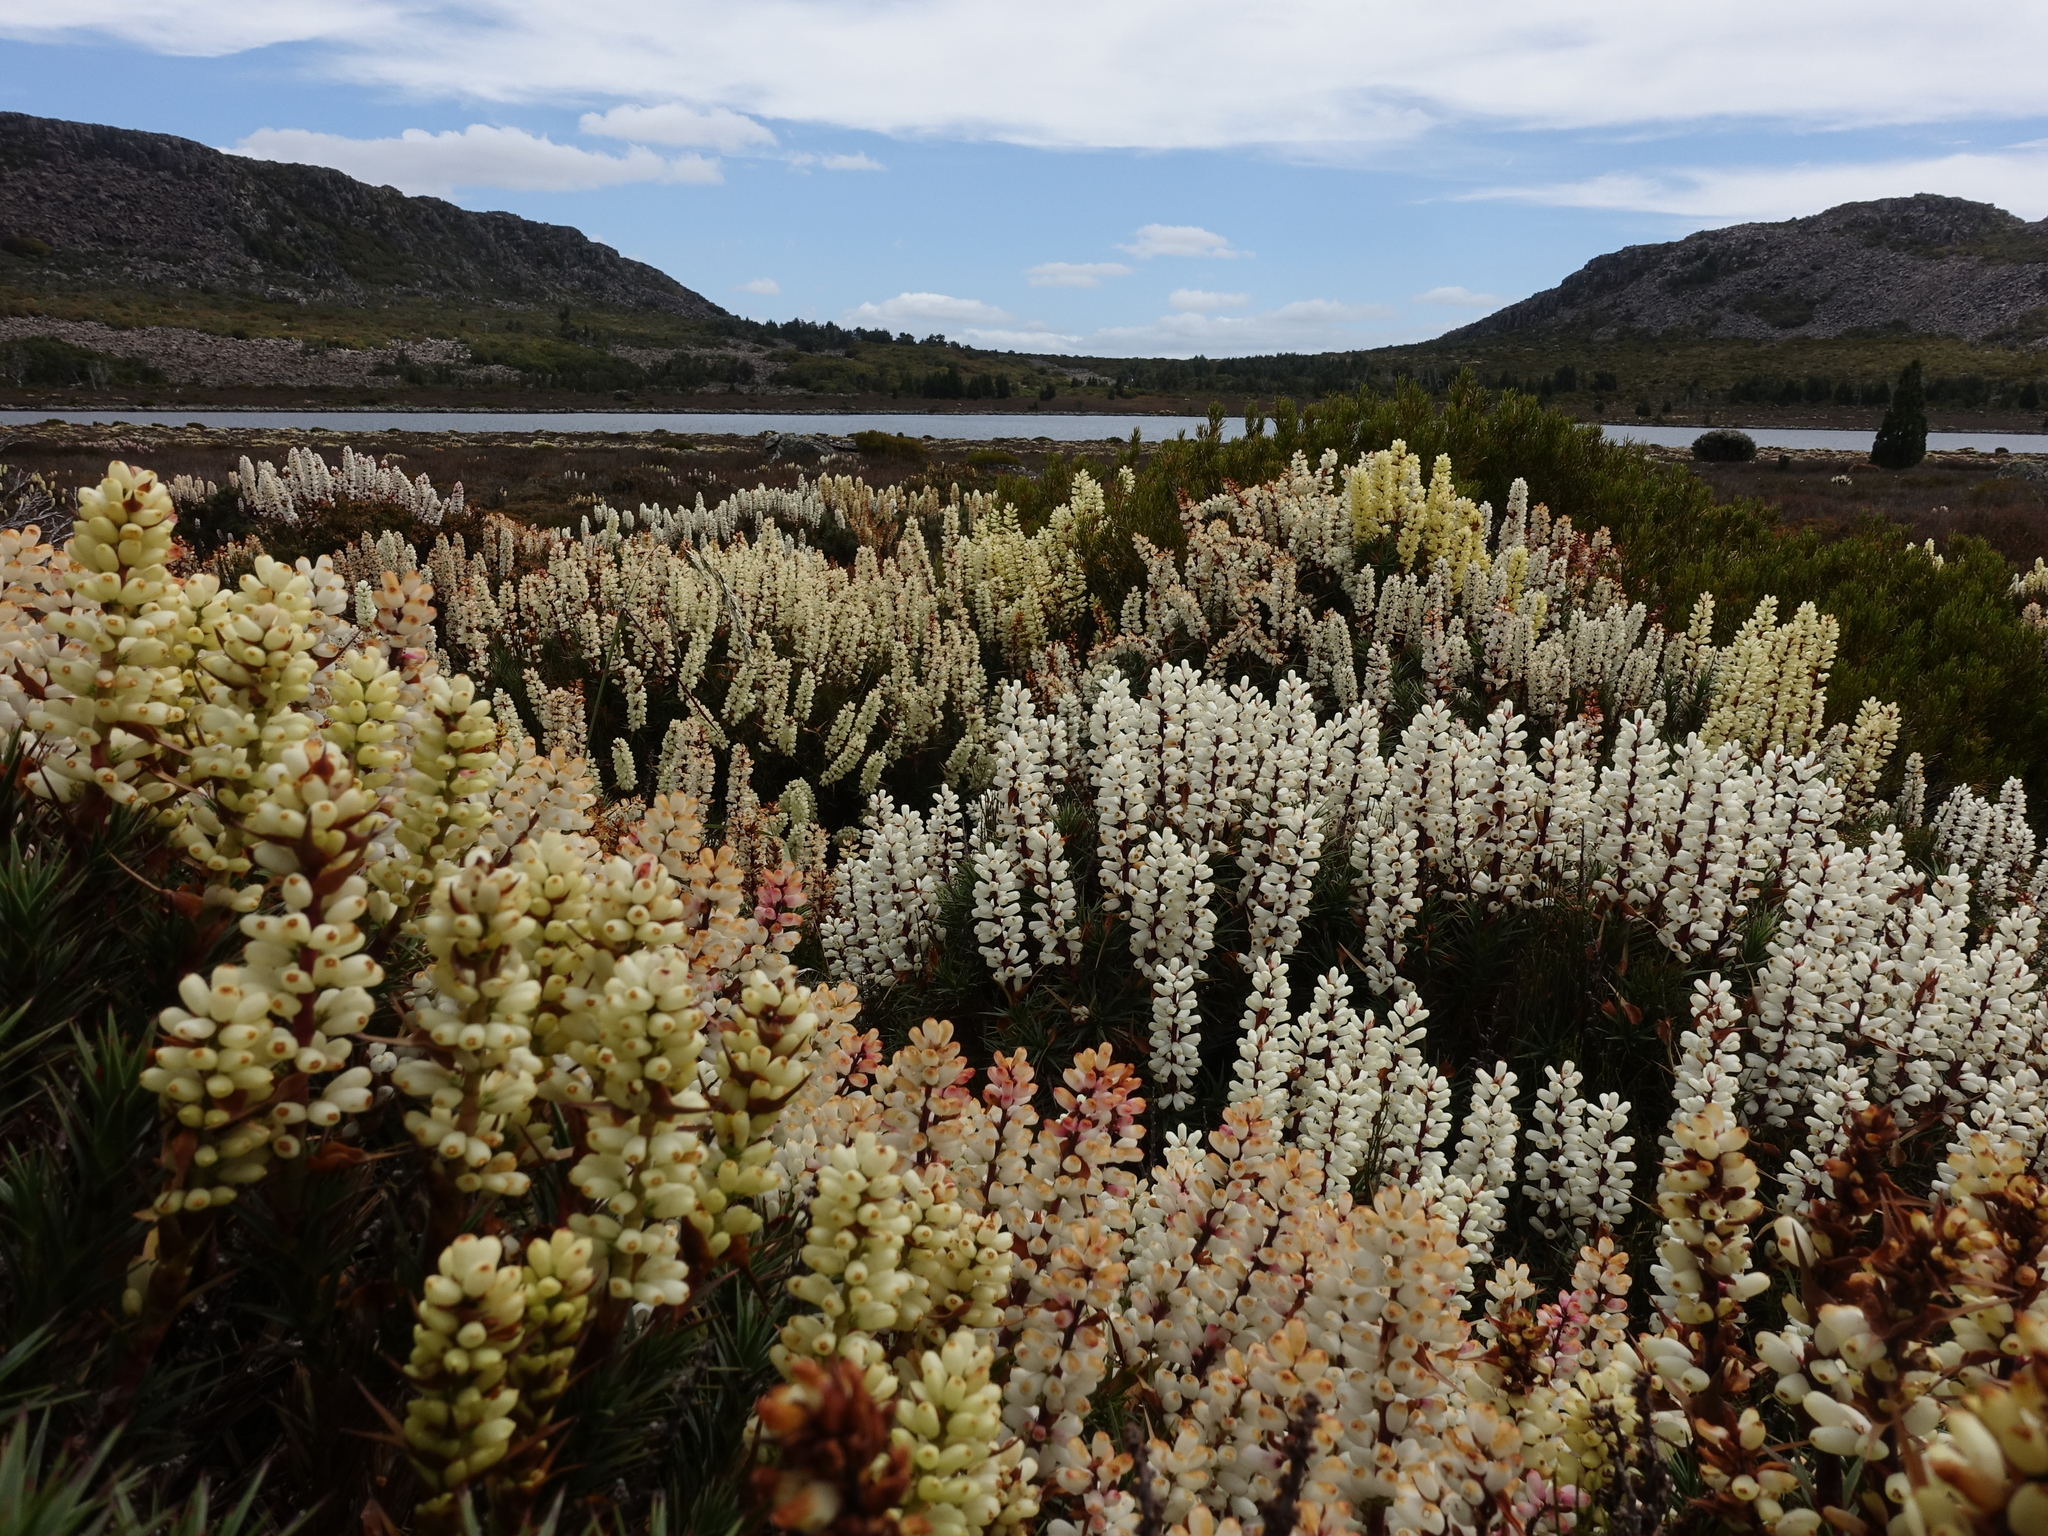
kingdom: Plantae
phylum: Tracheophyta
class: Magnoliopsida
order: Ericales
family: Ericaceae
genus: Dracophyllum
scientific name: Dracophyllum persistentifolium
